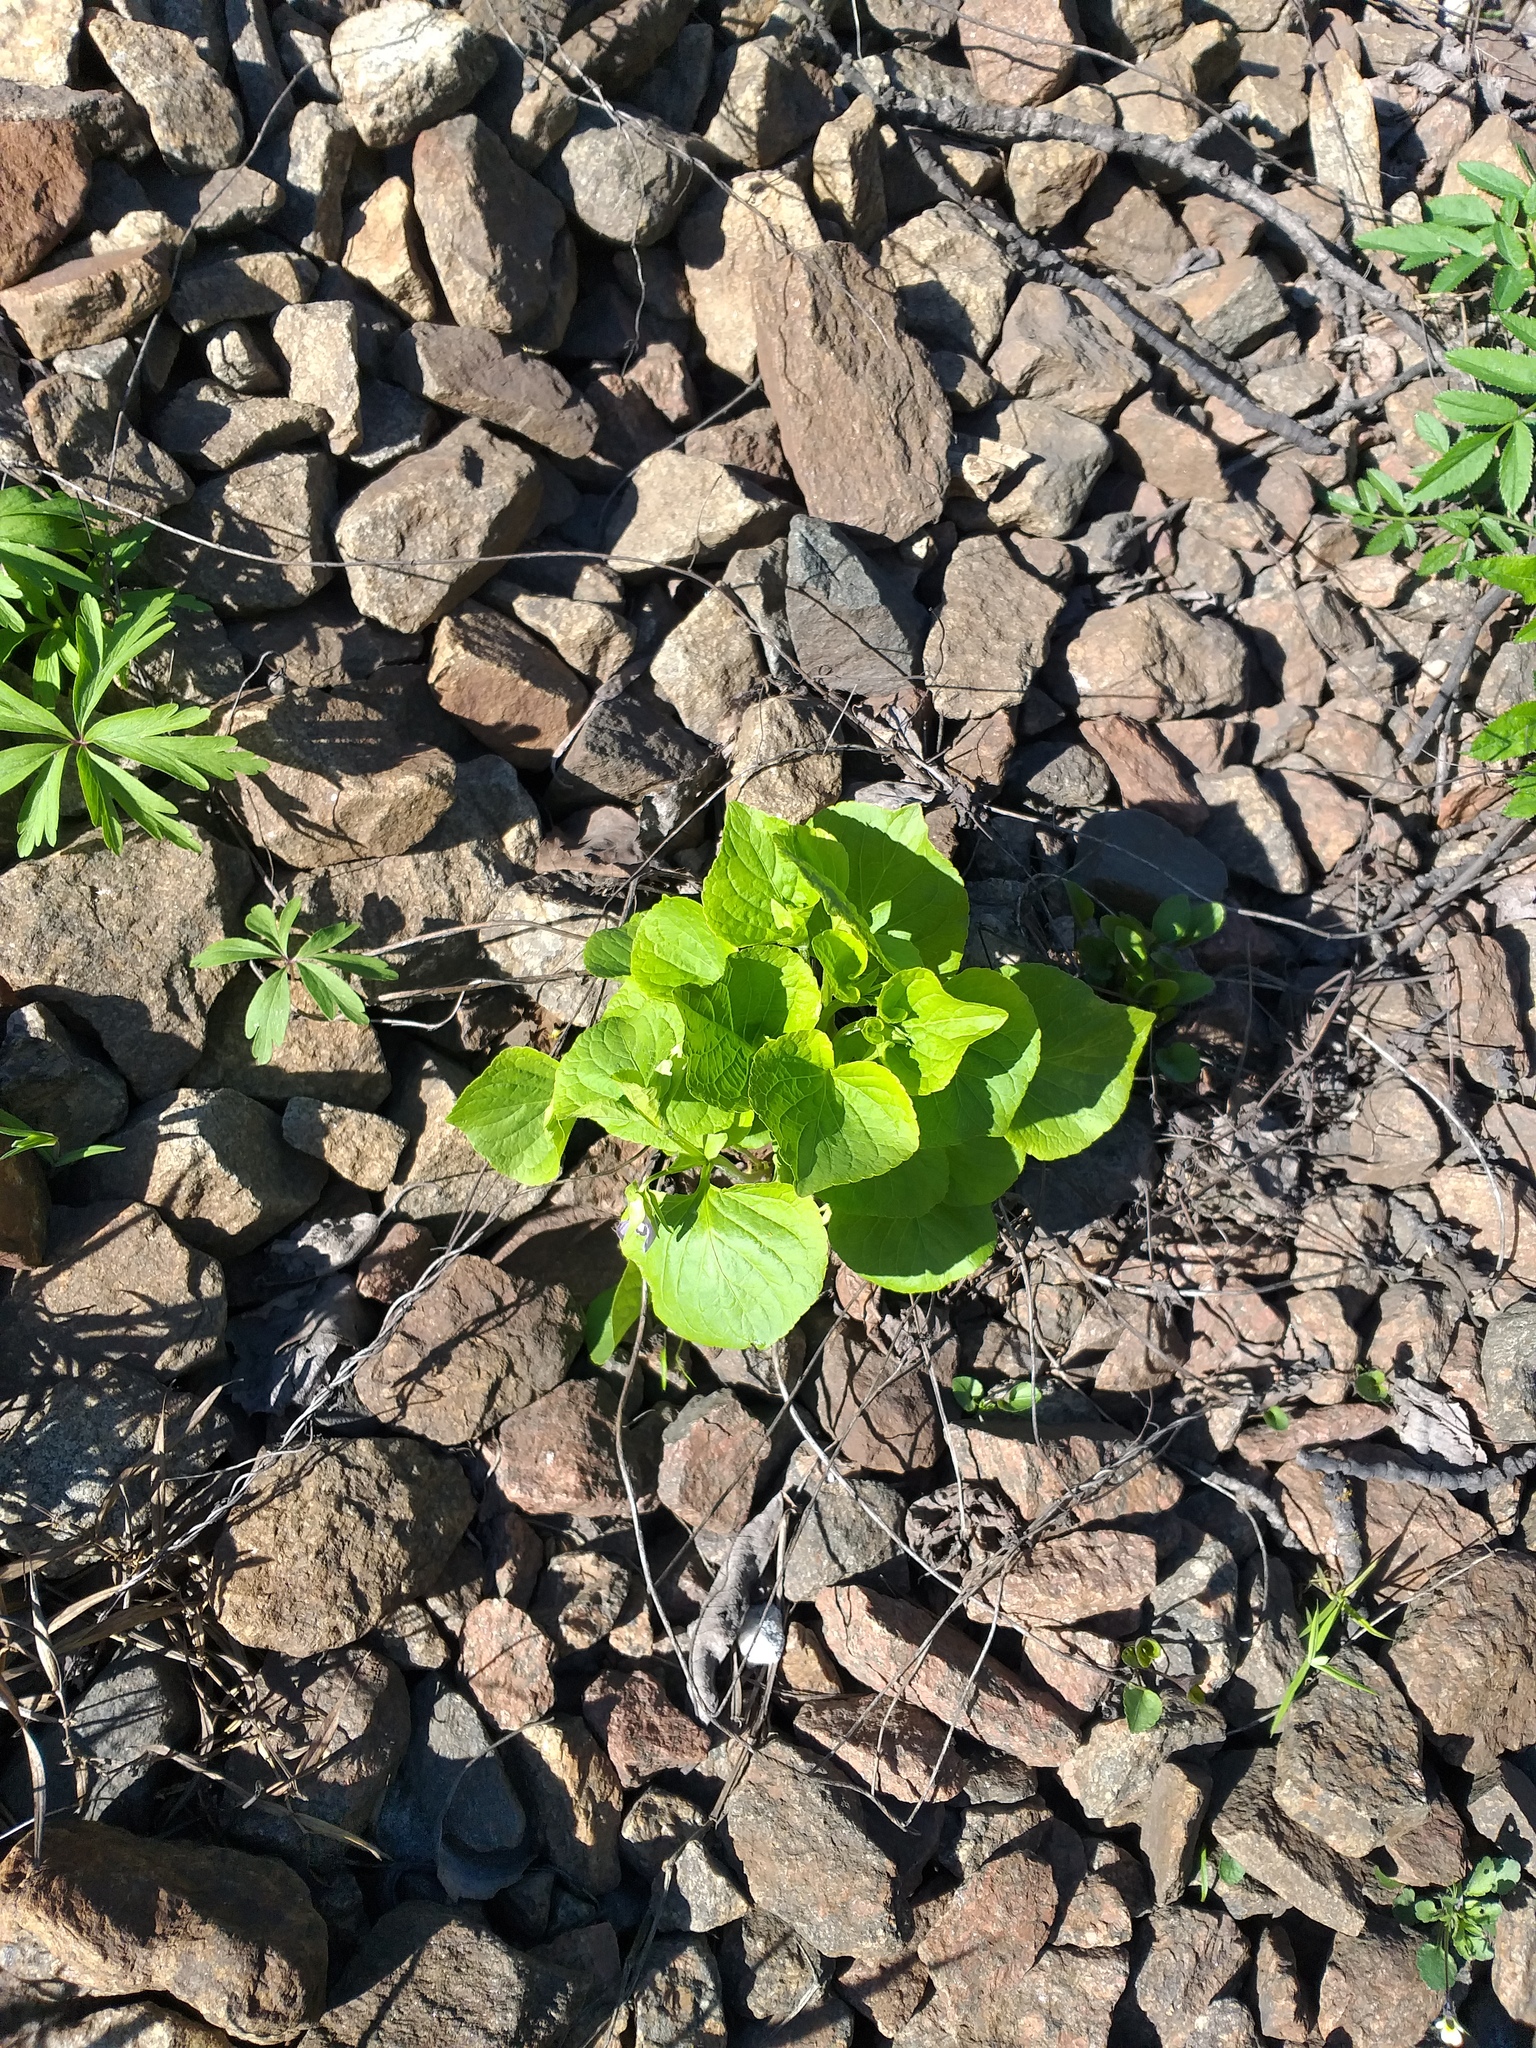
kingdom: Plantae
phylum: Tracheophyta
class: Magnoliopsida
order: Malpighiales
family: Violaceae
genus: Viola
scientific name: Viola mirabilis
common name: Wonder violet
